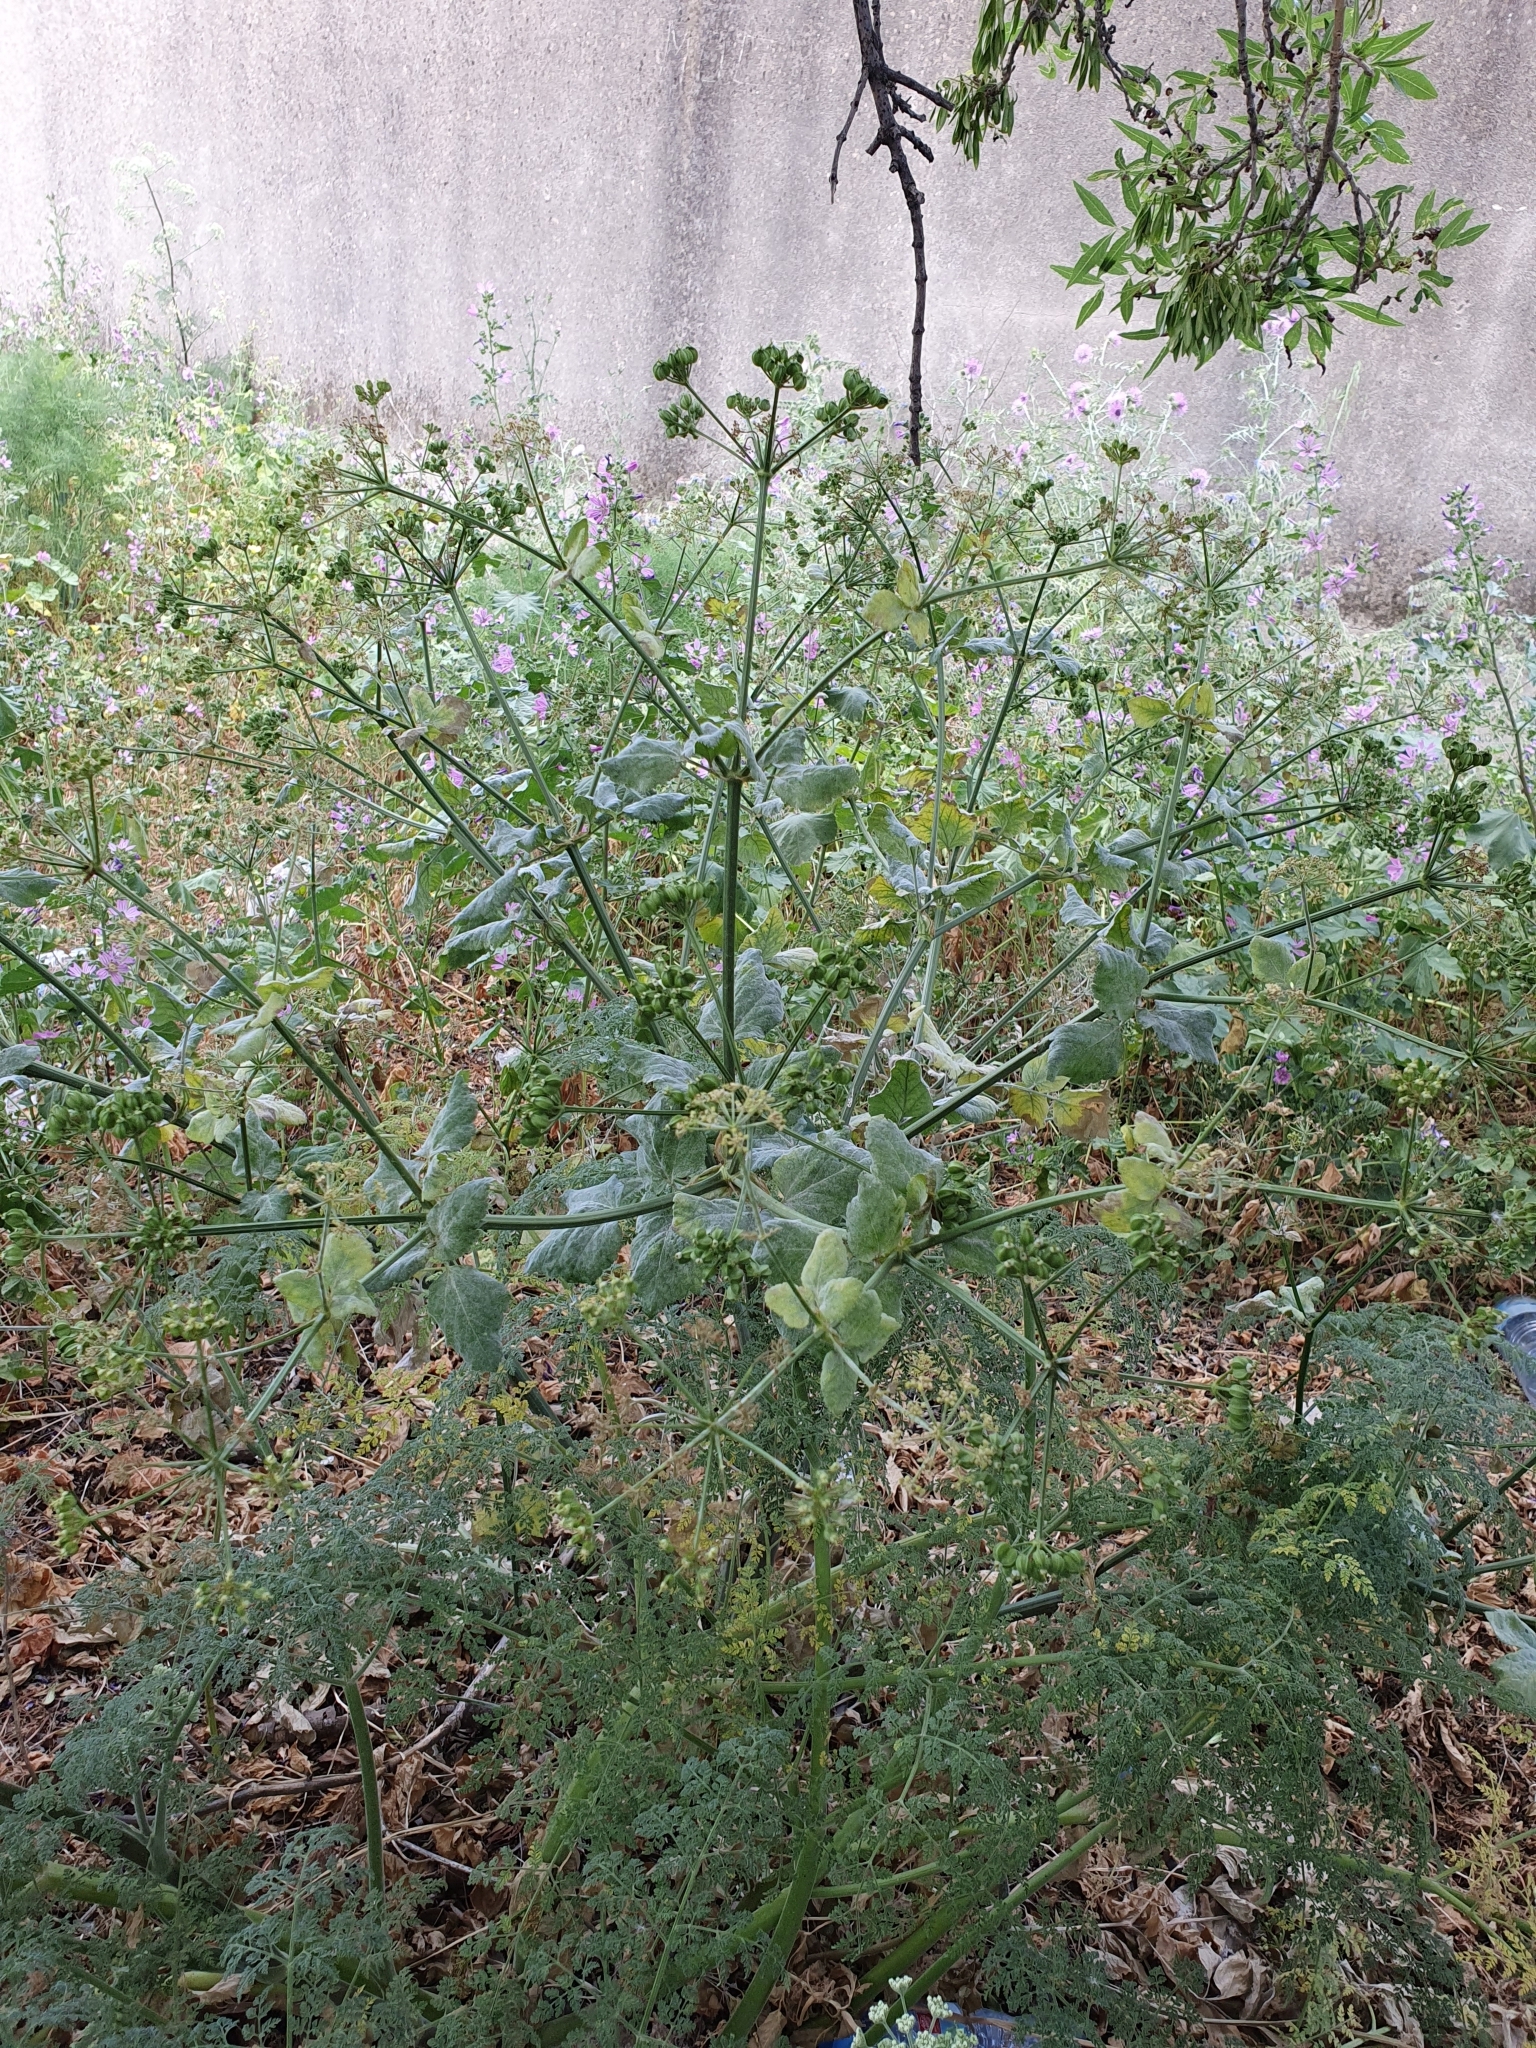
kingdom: Plantae
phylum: Tracheophyta
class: Magnoliopsida
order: Apiales
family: Apiaceae
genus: Smyrnium
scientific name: Smyrnium olusatrum
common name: Alexanders
